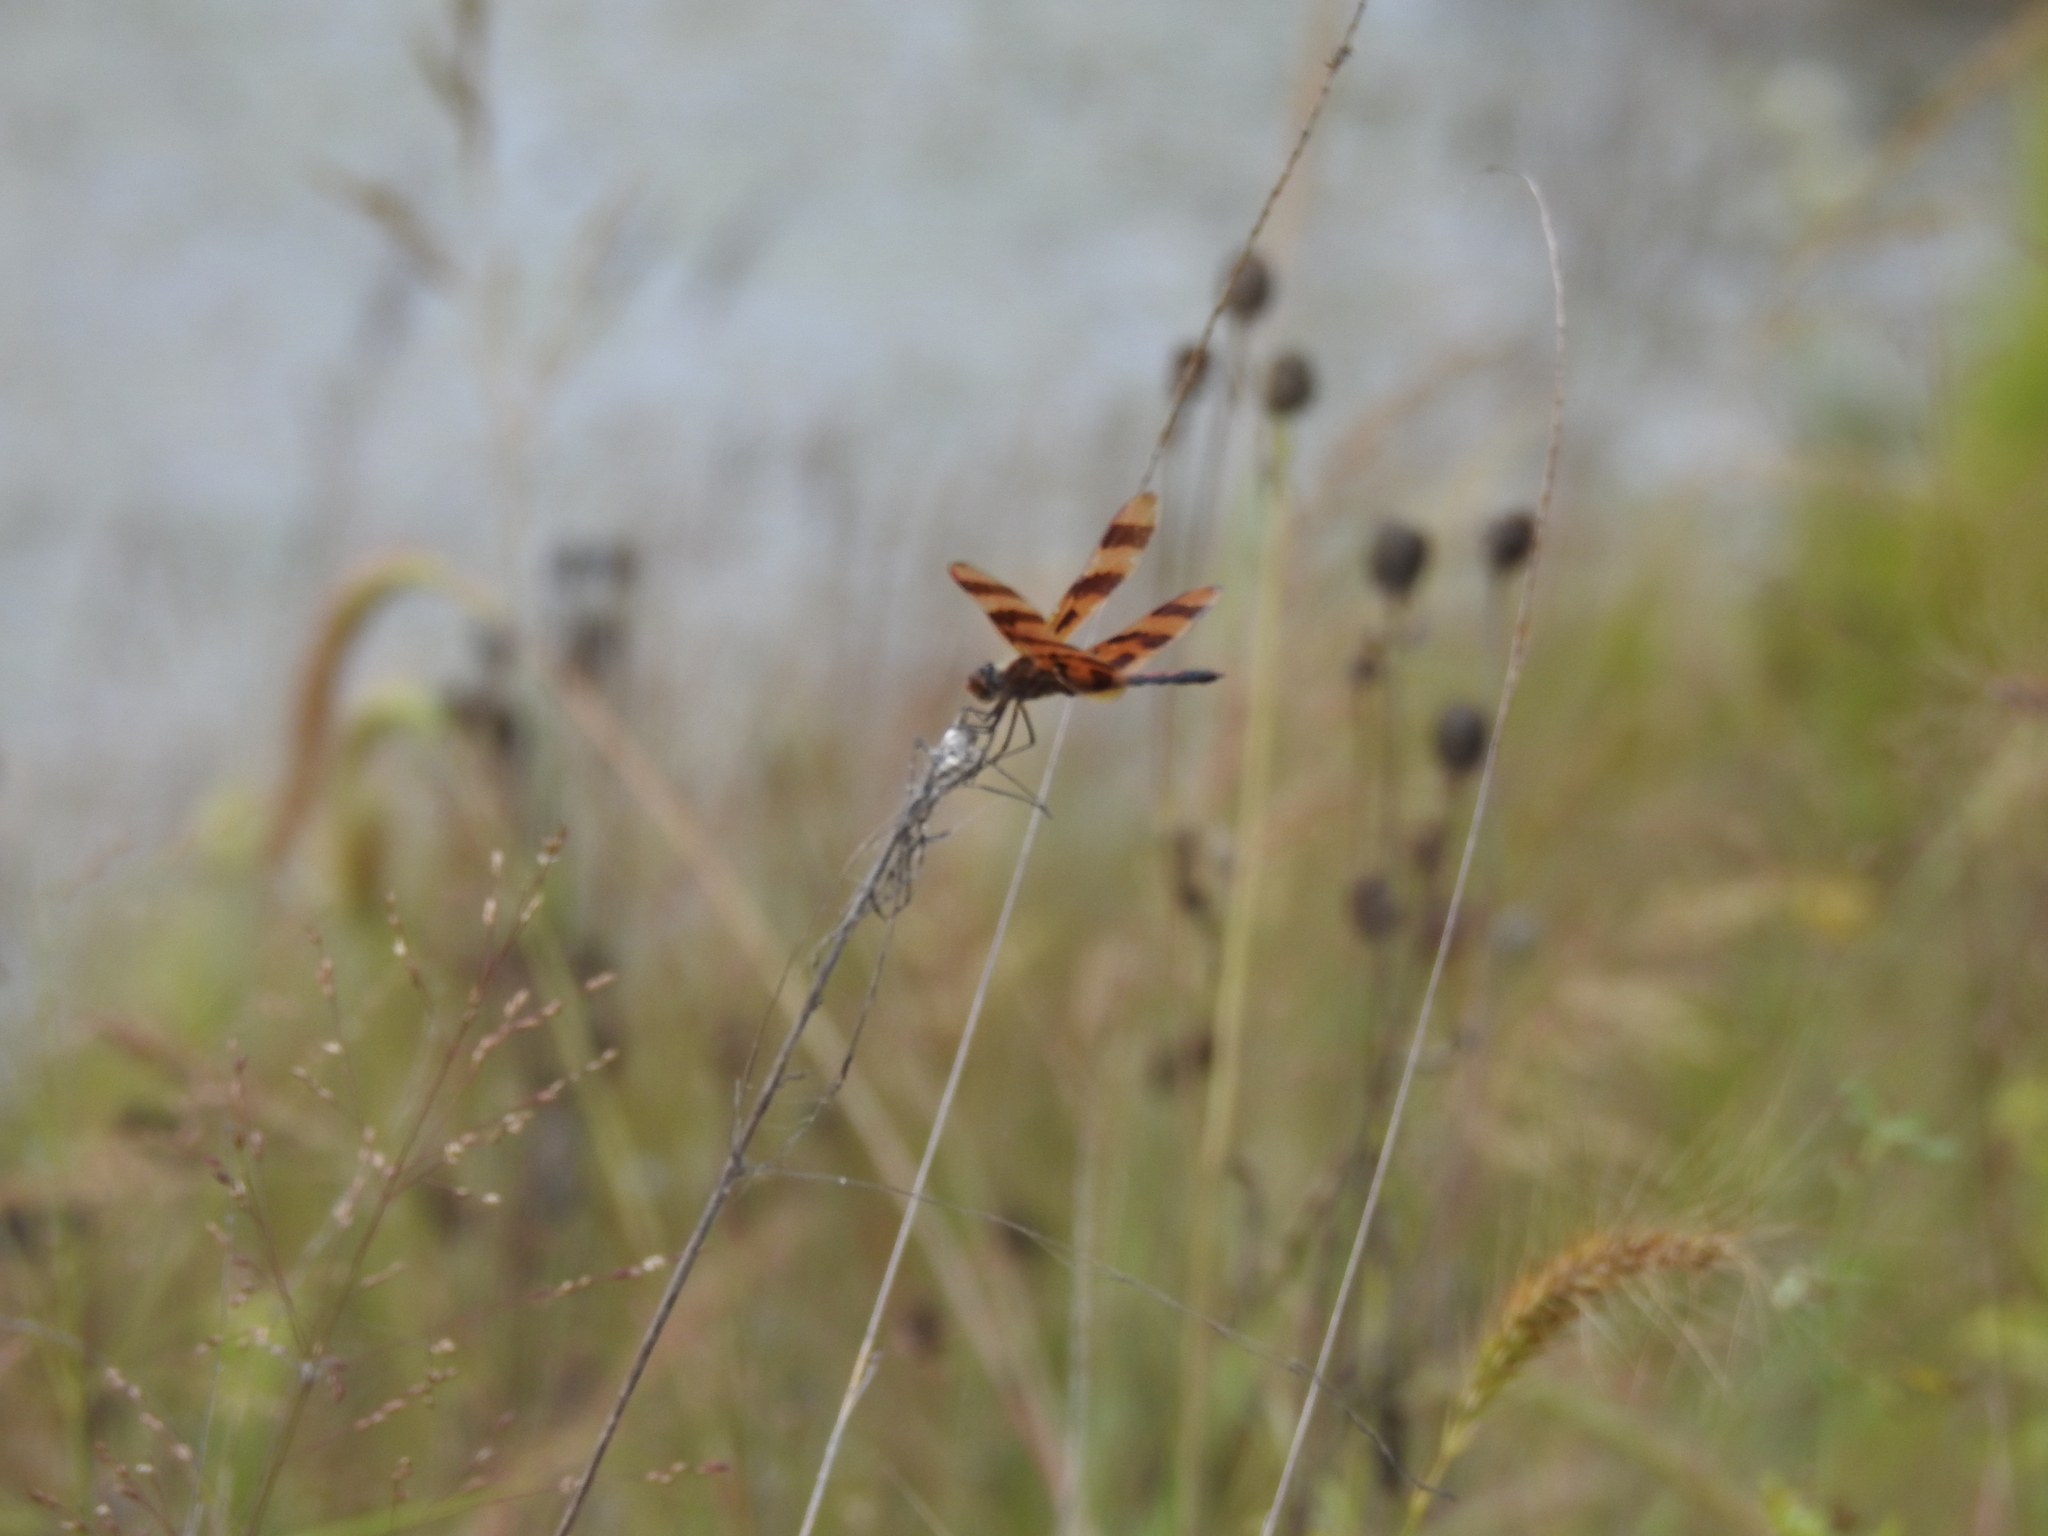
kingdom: Animalia
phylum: Arthropoda
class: Insecta
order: Odonata
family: Libellulidae
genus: Celithemis
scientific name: Celithemis eponina
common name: Halloween pennant
